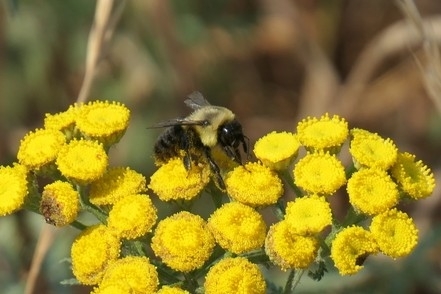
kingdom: Animalia
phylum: Arthropoda
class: Insecta
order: Hymenoptera
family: Apidae
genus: Bombus
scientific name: Bombus impatiens
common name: Common eastern bumble bee
